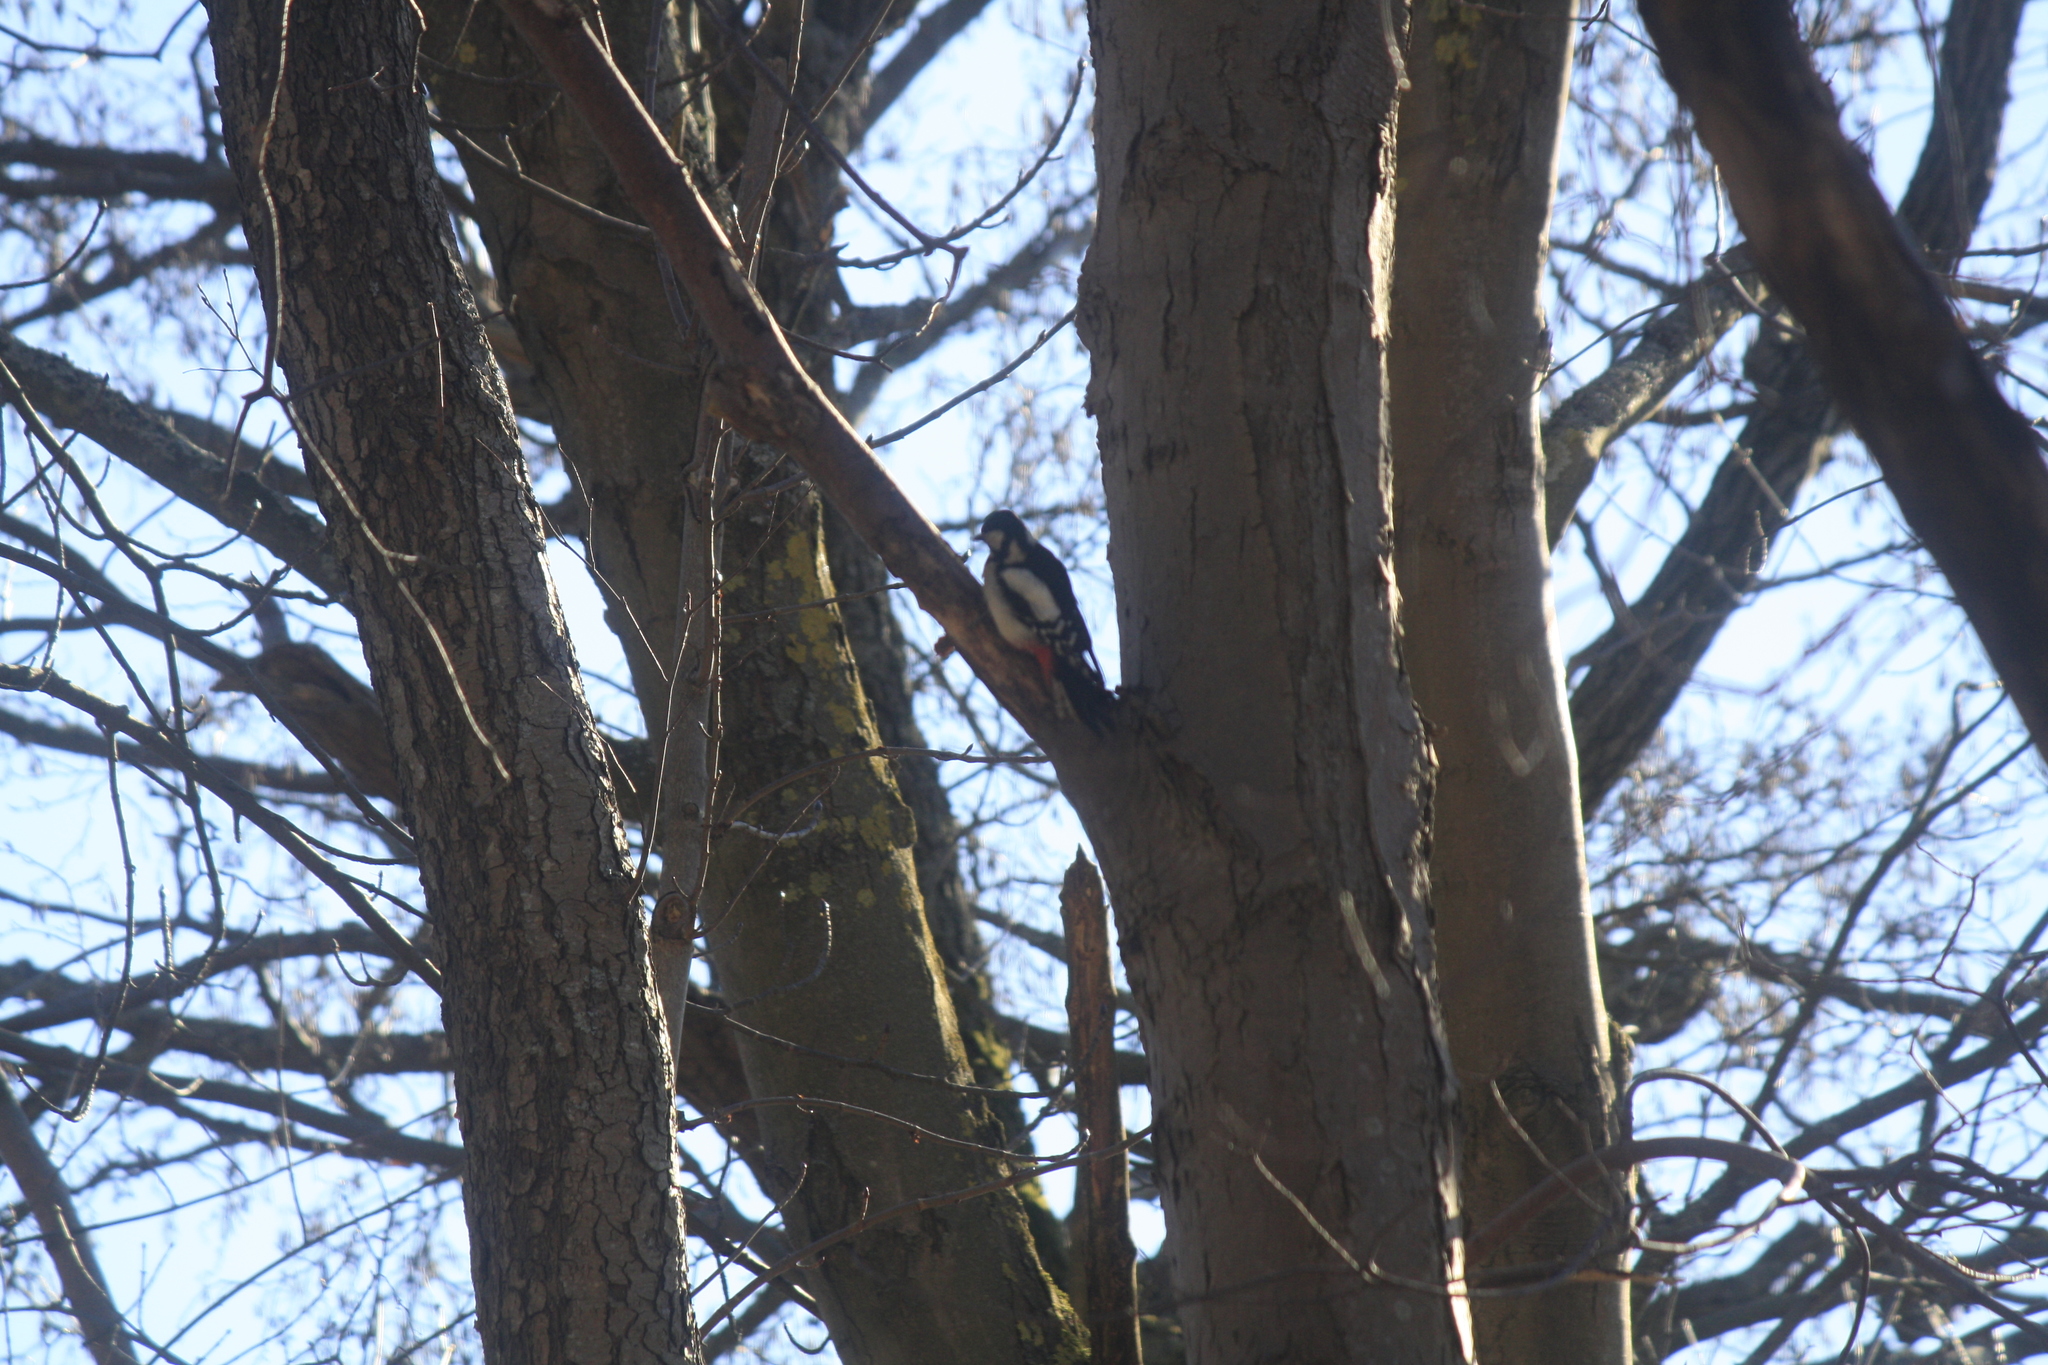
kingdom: Animalia
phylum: Chordata
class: Aves
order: Piciformes
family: Picidae
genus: Dendrocopos
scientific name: Dendrocopos major
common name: Great spotted woodpecker
